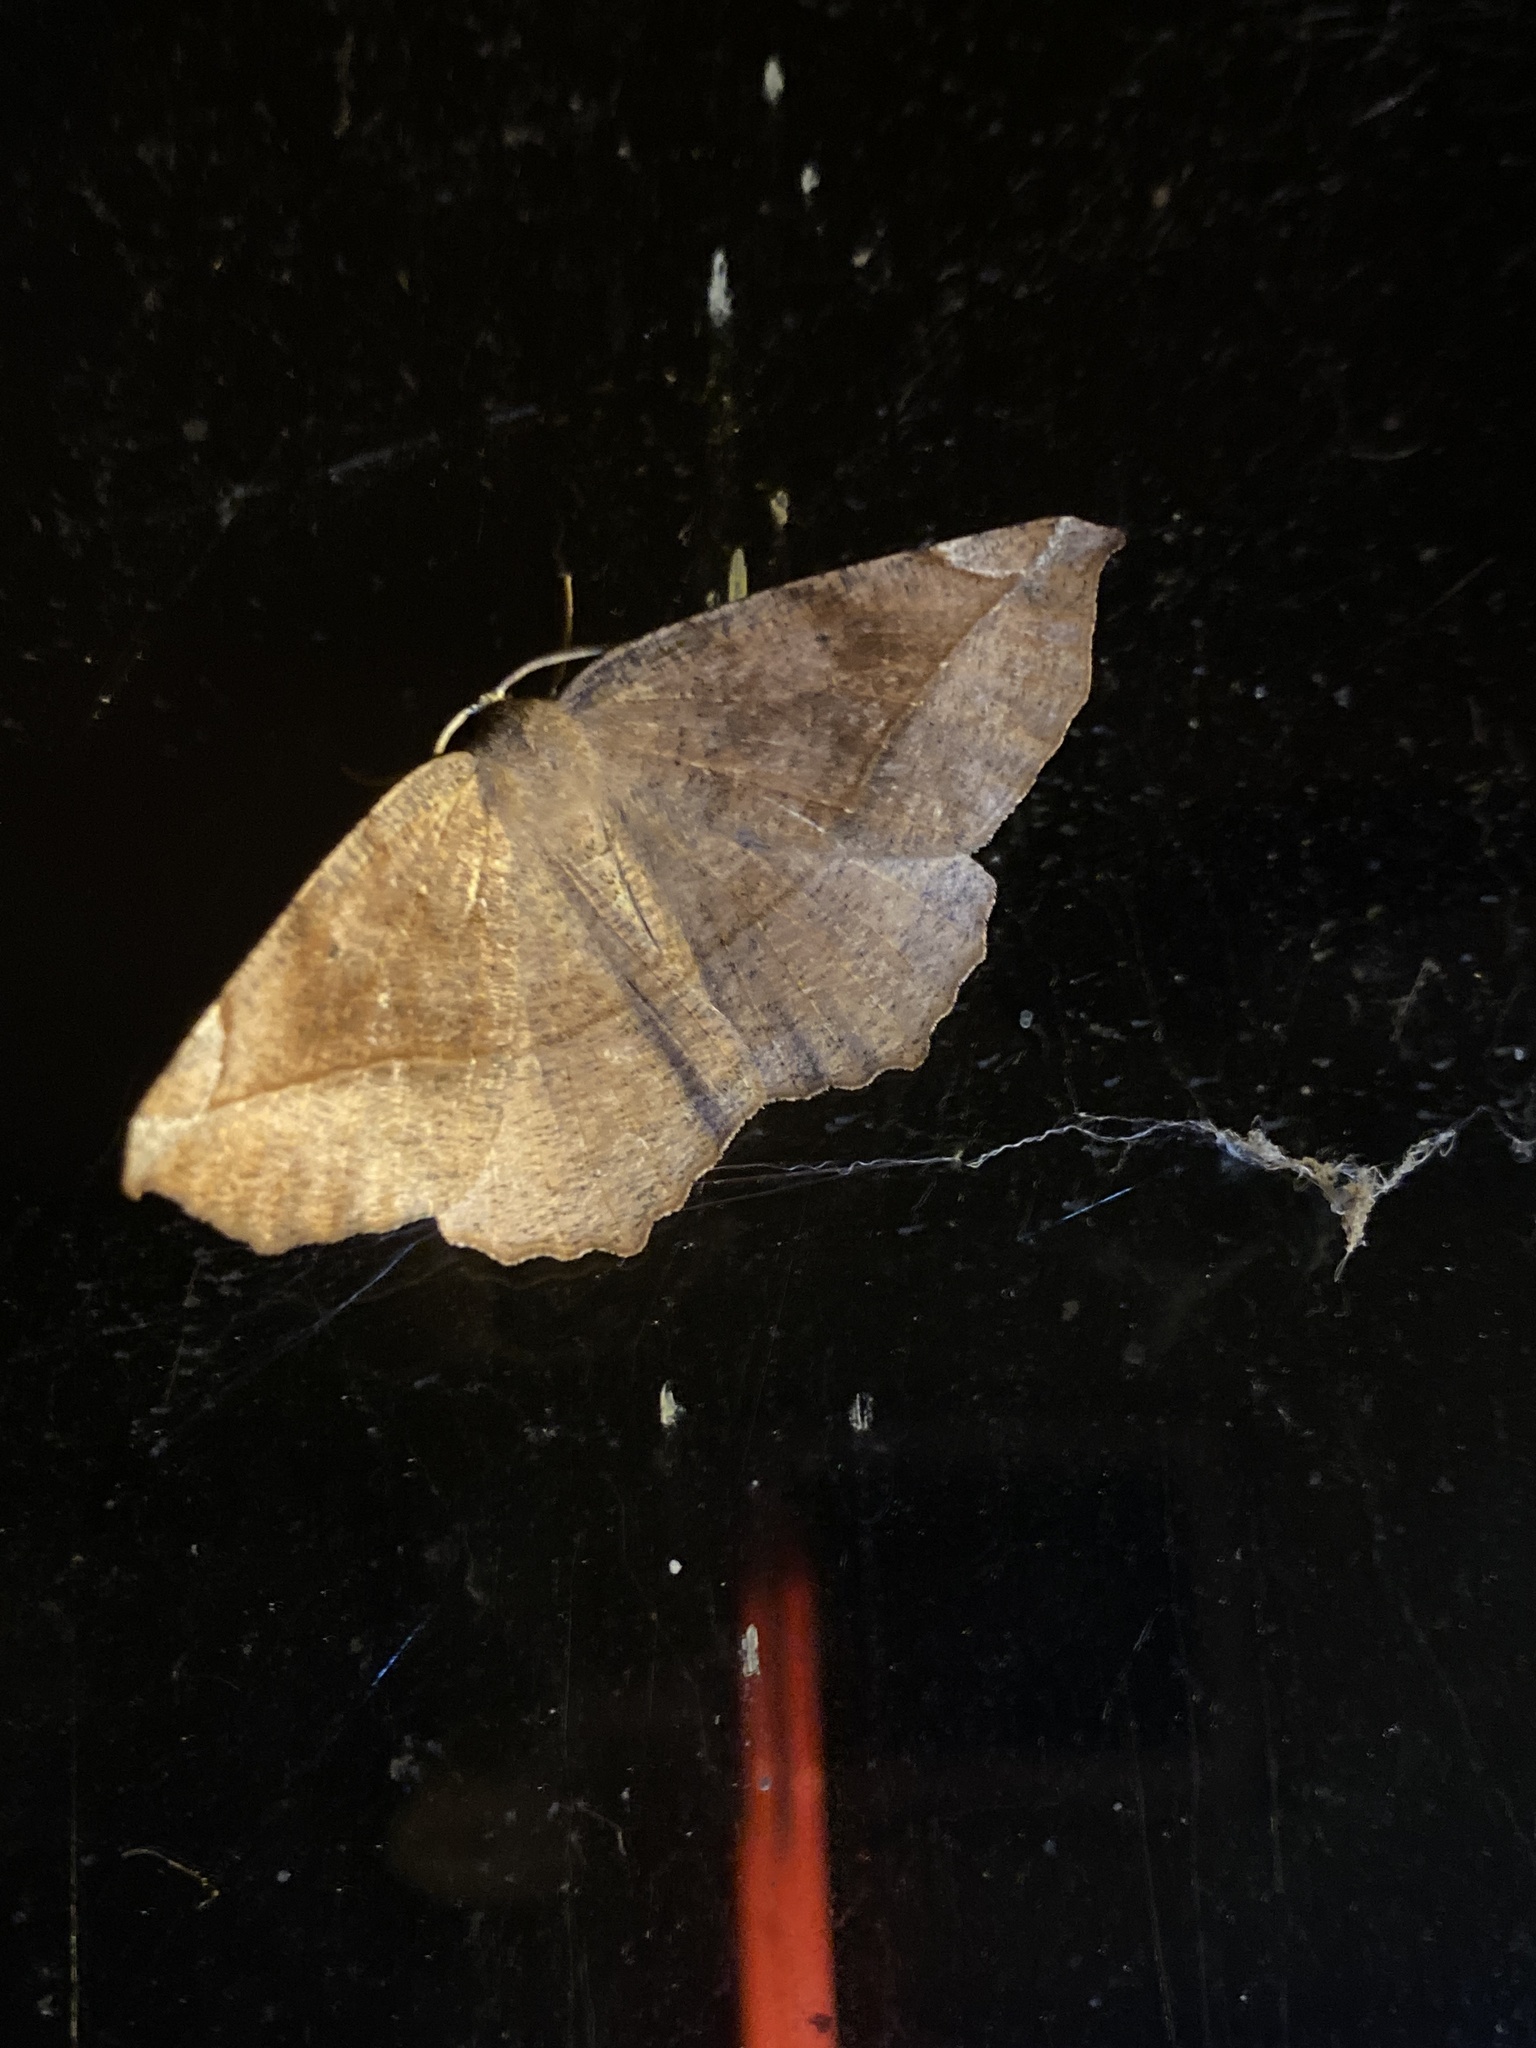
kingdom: Animalia
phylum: Arthropoda
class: Insecta
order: Lepidoptera
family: Geometridae
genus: Eutrapela
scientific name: Eutrapela clemataria
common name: Curved-toothed geometer
